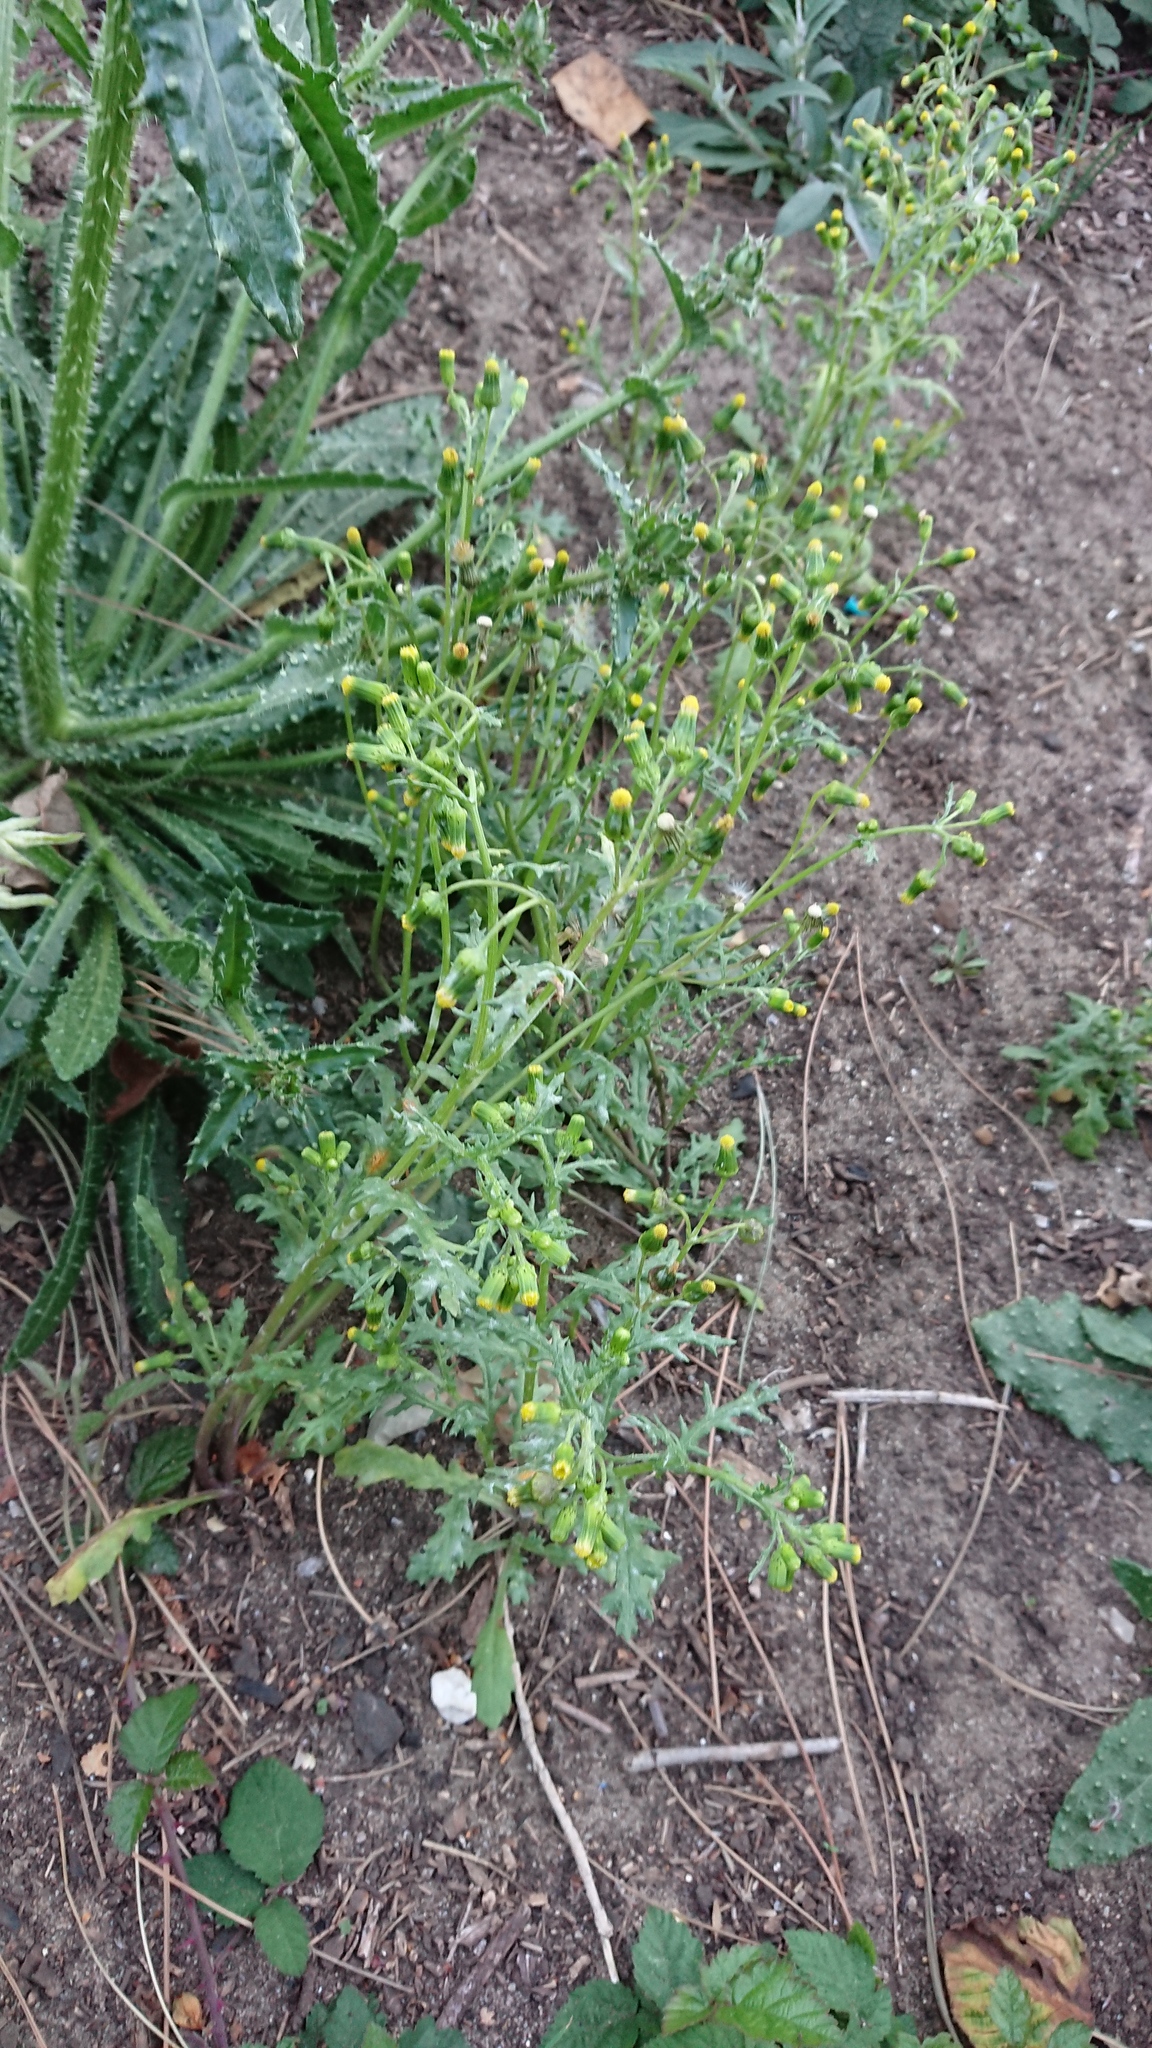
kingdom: Plantae
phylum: Tracheophyta
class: Magnoliopsida
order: Asterales
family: Asteraceae
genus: Senecio
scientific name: Senecio vulgaris
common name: Old-man-in-the-spring
